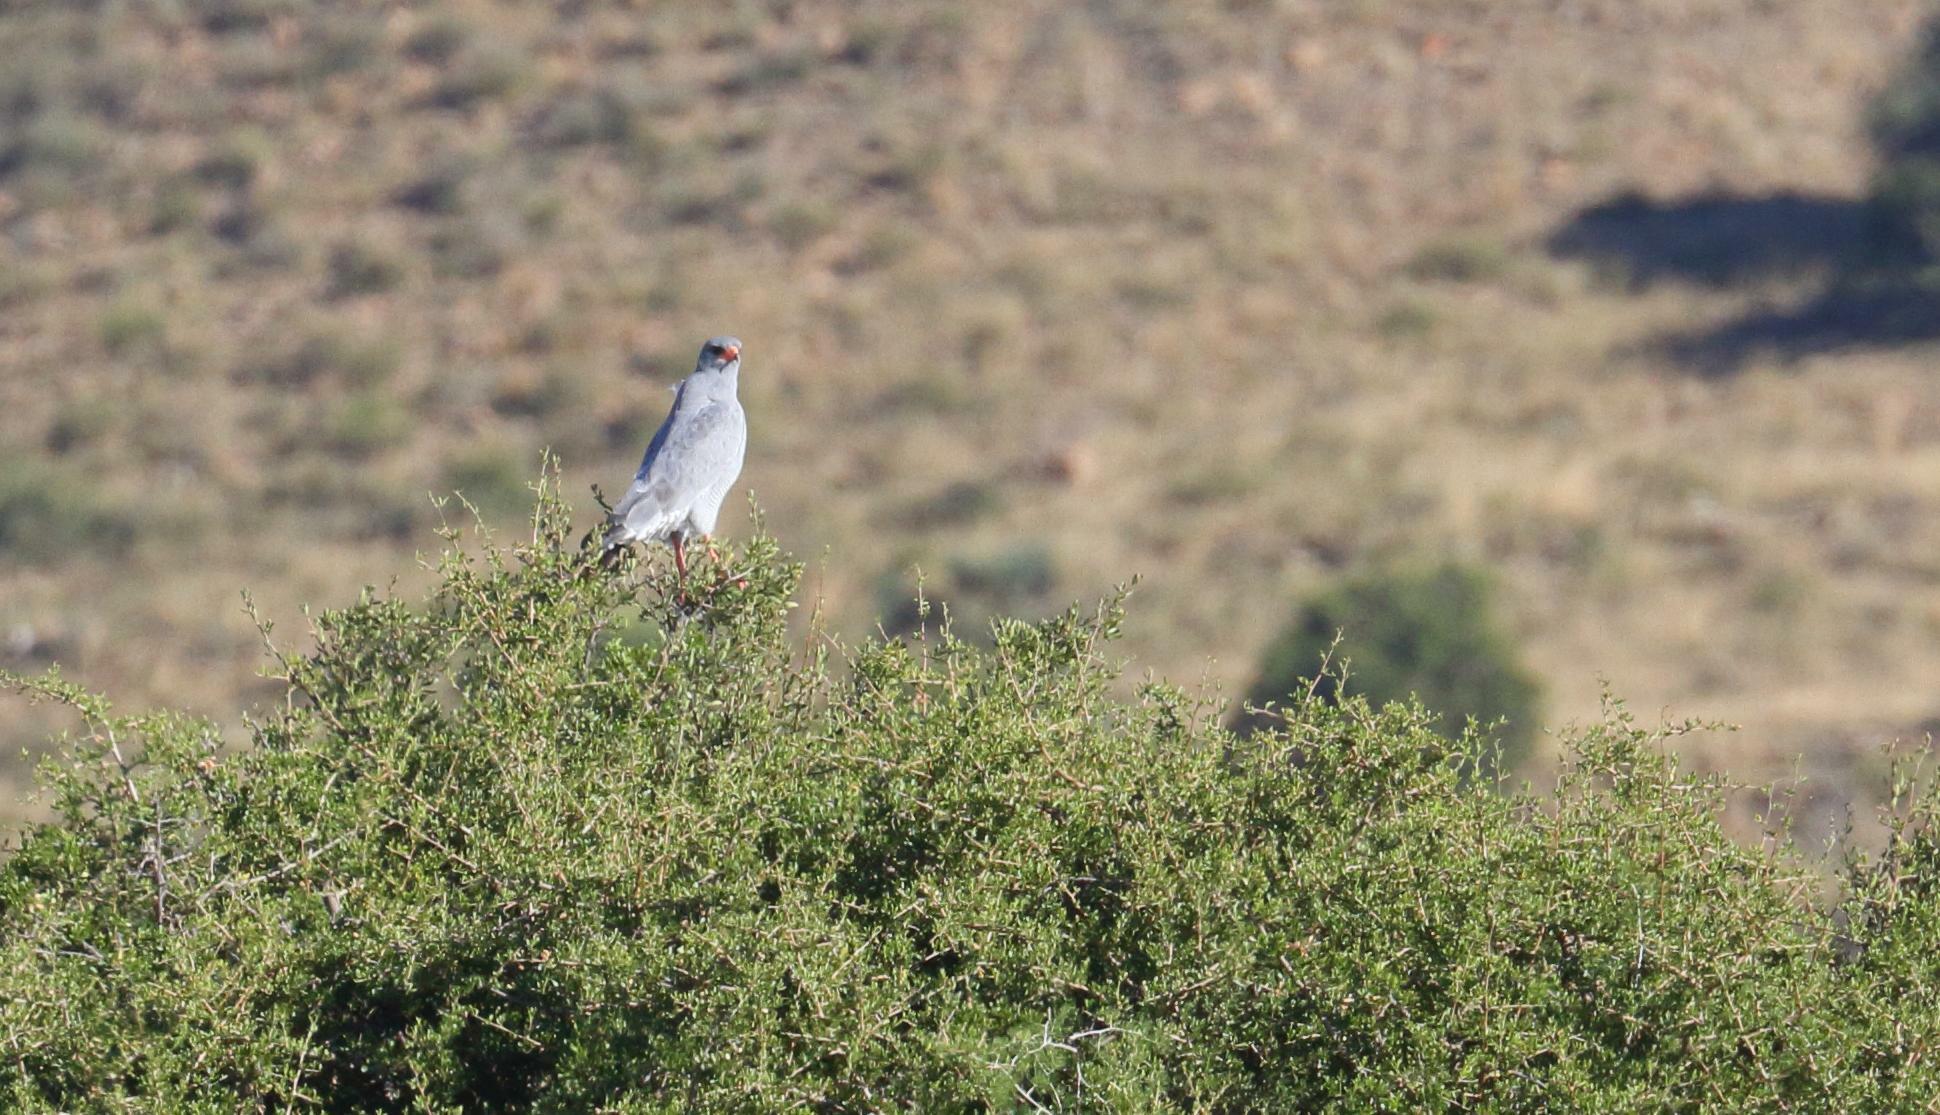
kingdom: Animalia
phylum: Chordata
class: Aves
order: Accipitriformes
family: Accipitridae
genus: Melierax
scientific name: Melierax canorus
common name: Pale chanting-goshawk
